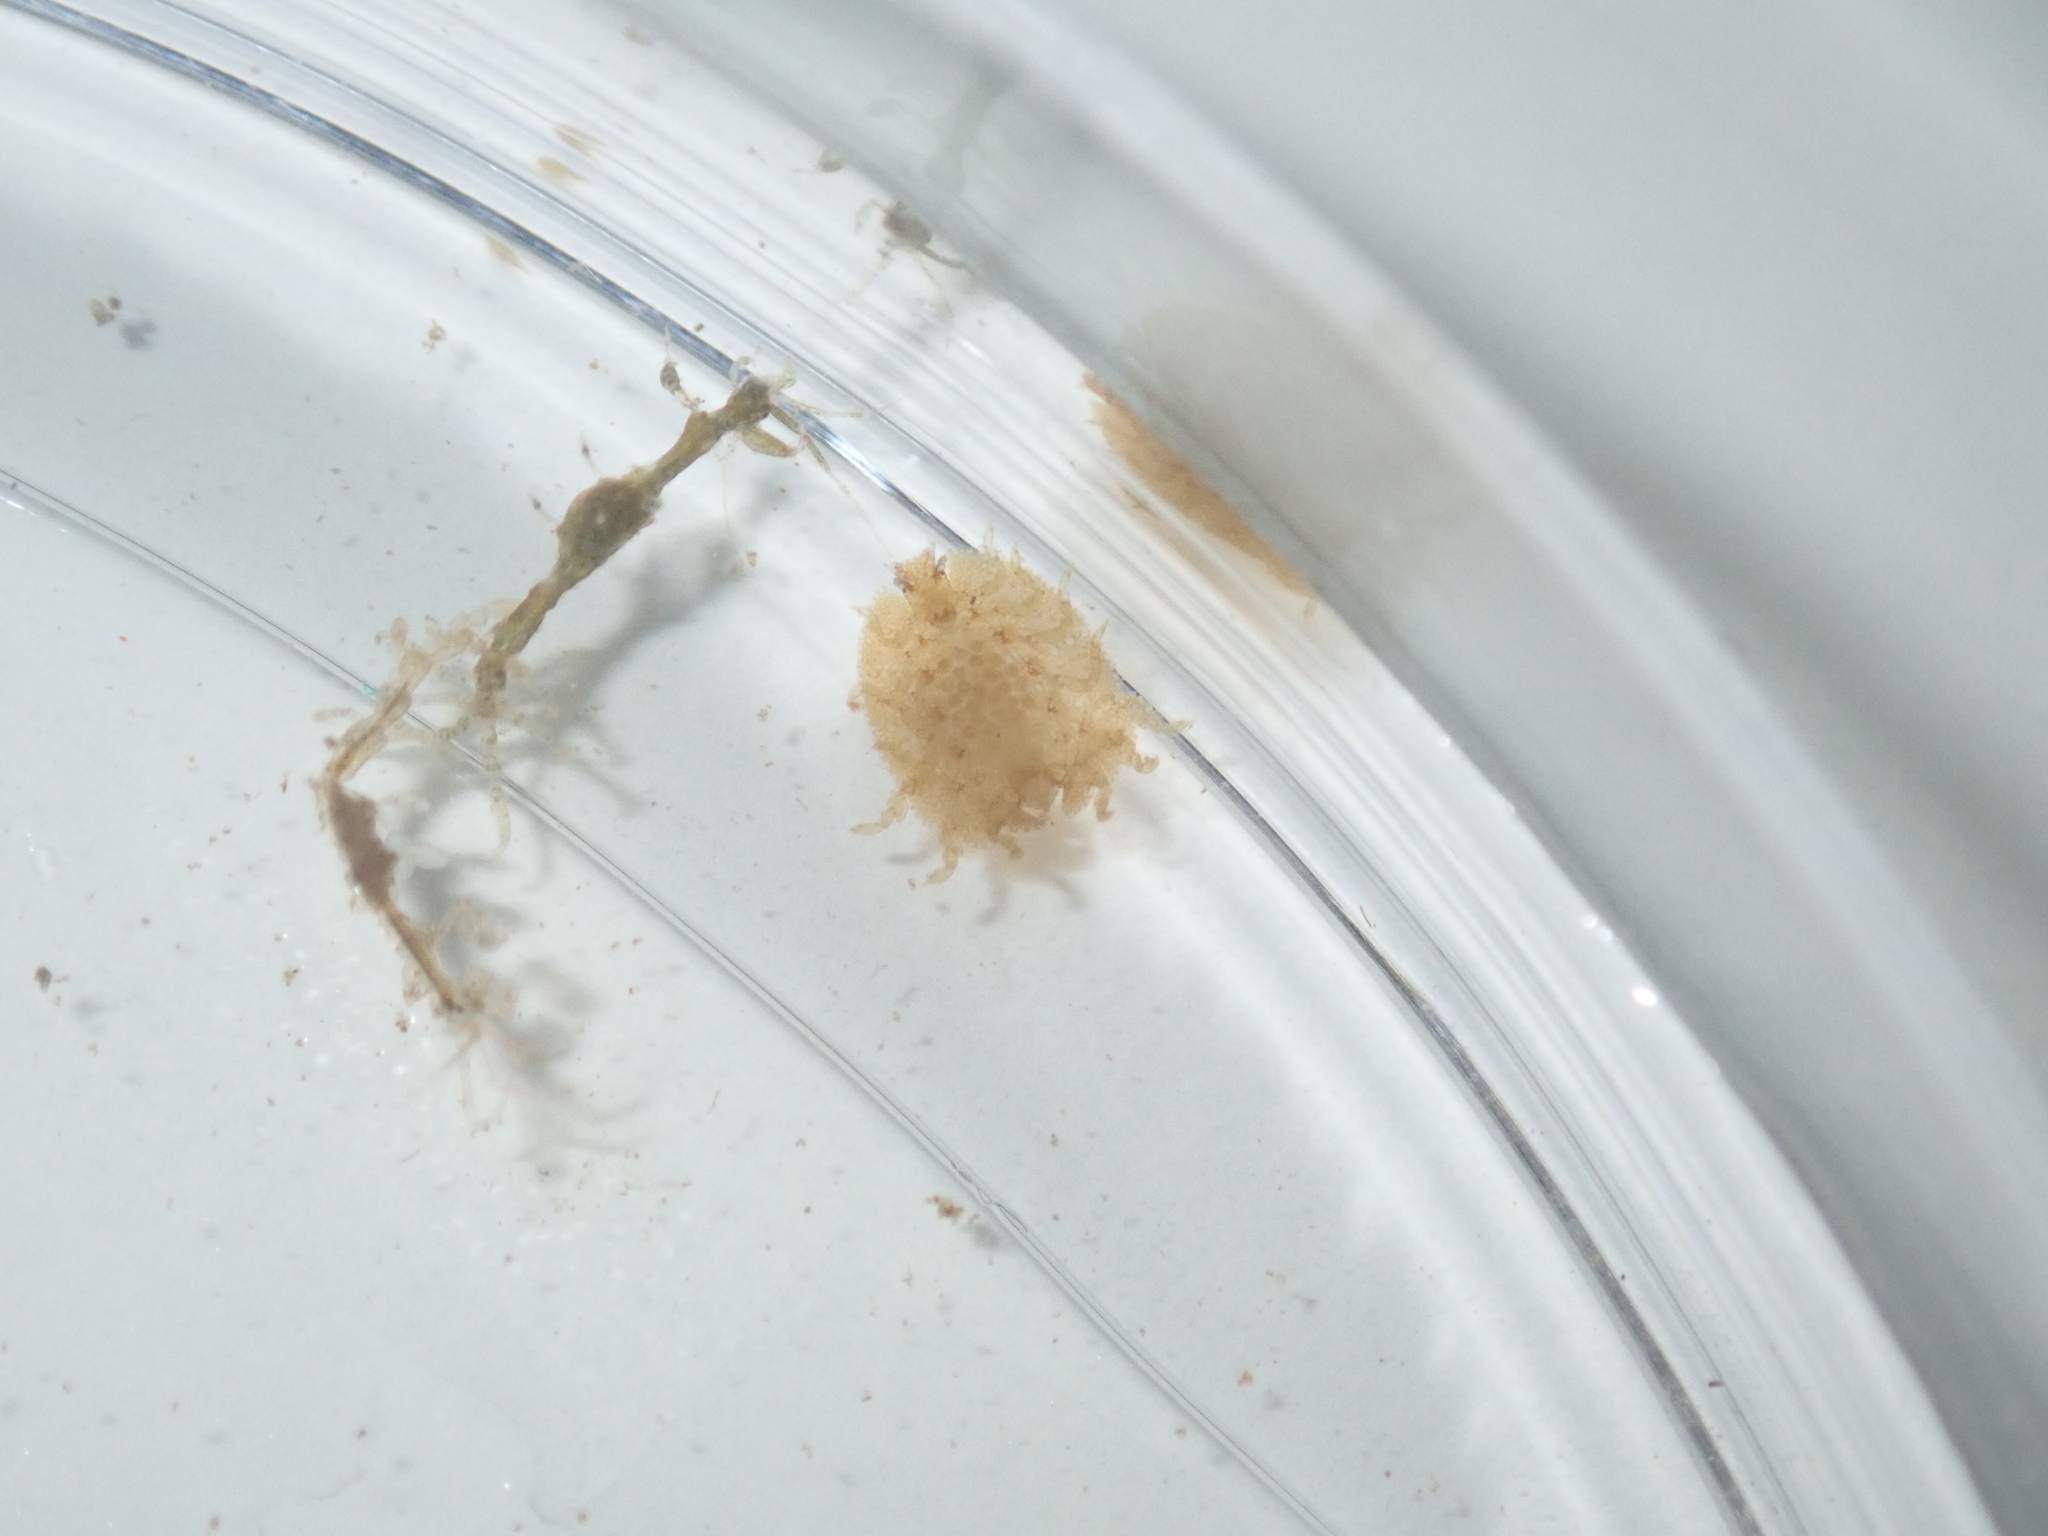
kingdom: Animalia
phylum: Arthropoda
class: Malacostraca
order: Amphipoda
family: Phliantidae
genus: Iphiplateia
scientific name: Iphiplateia whiteleggei
